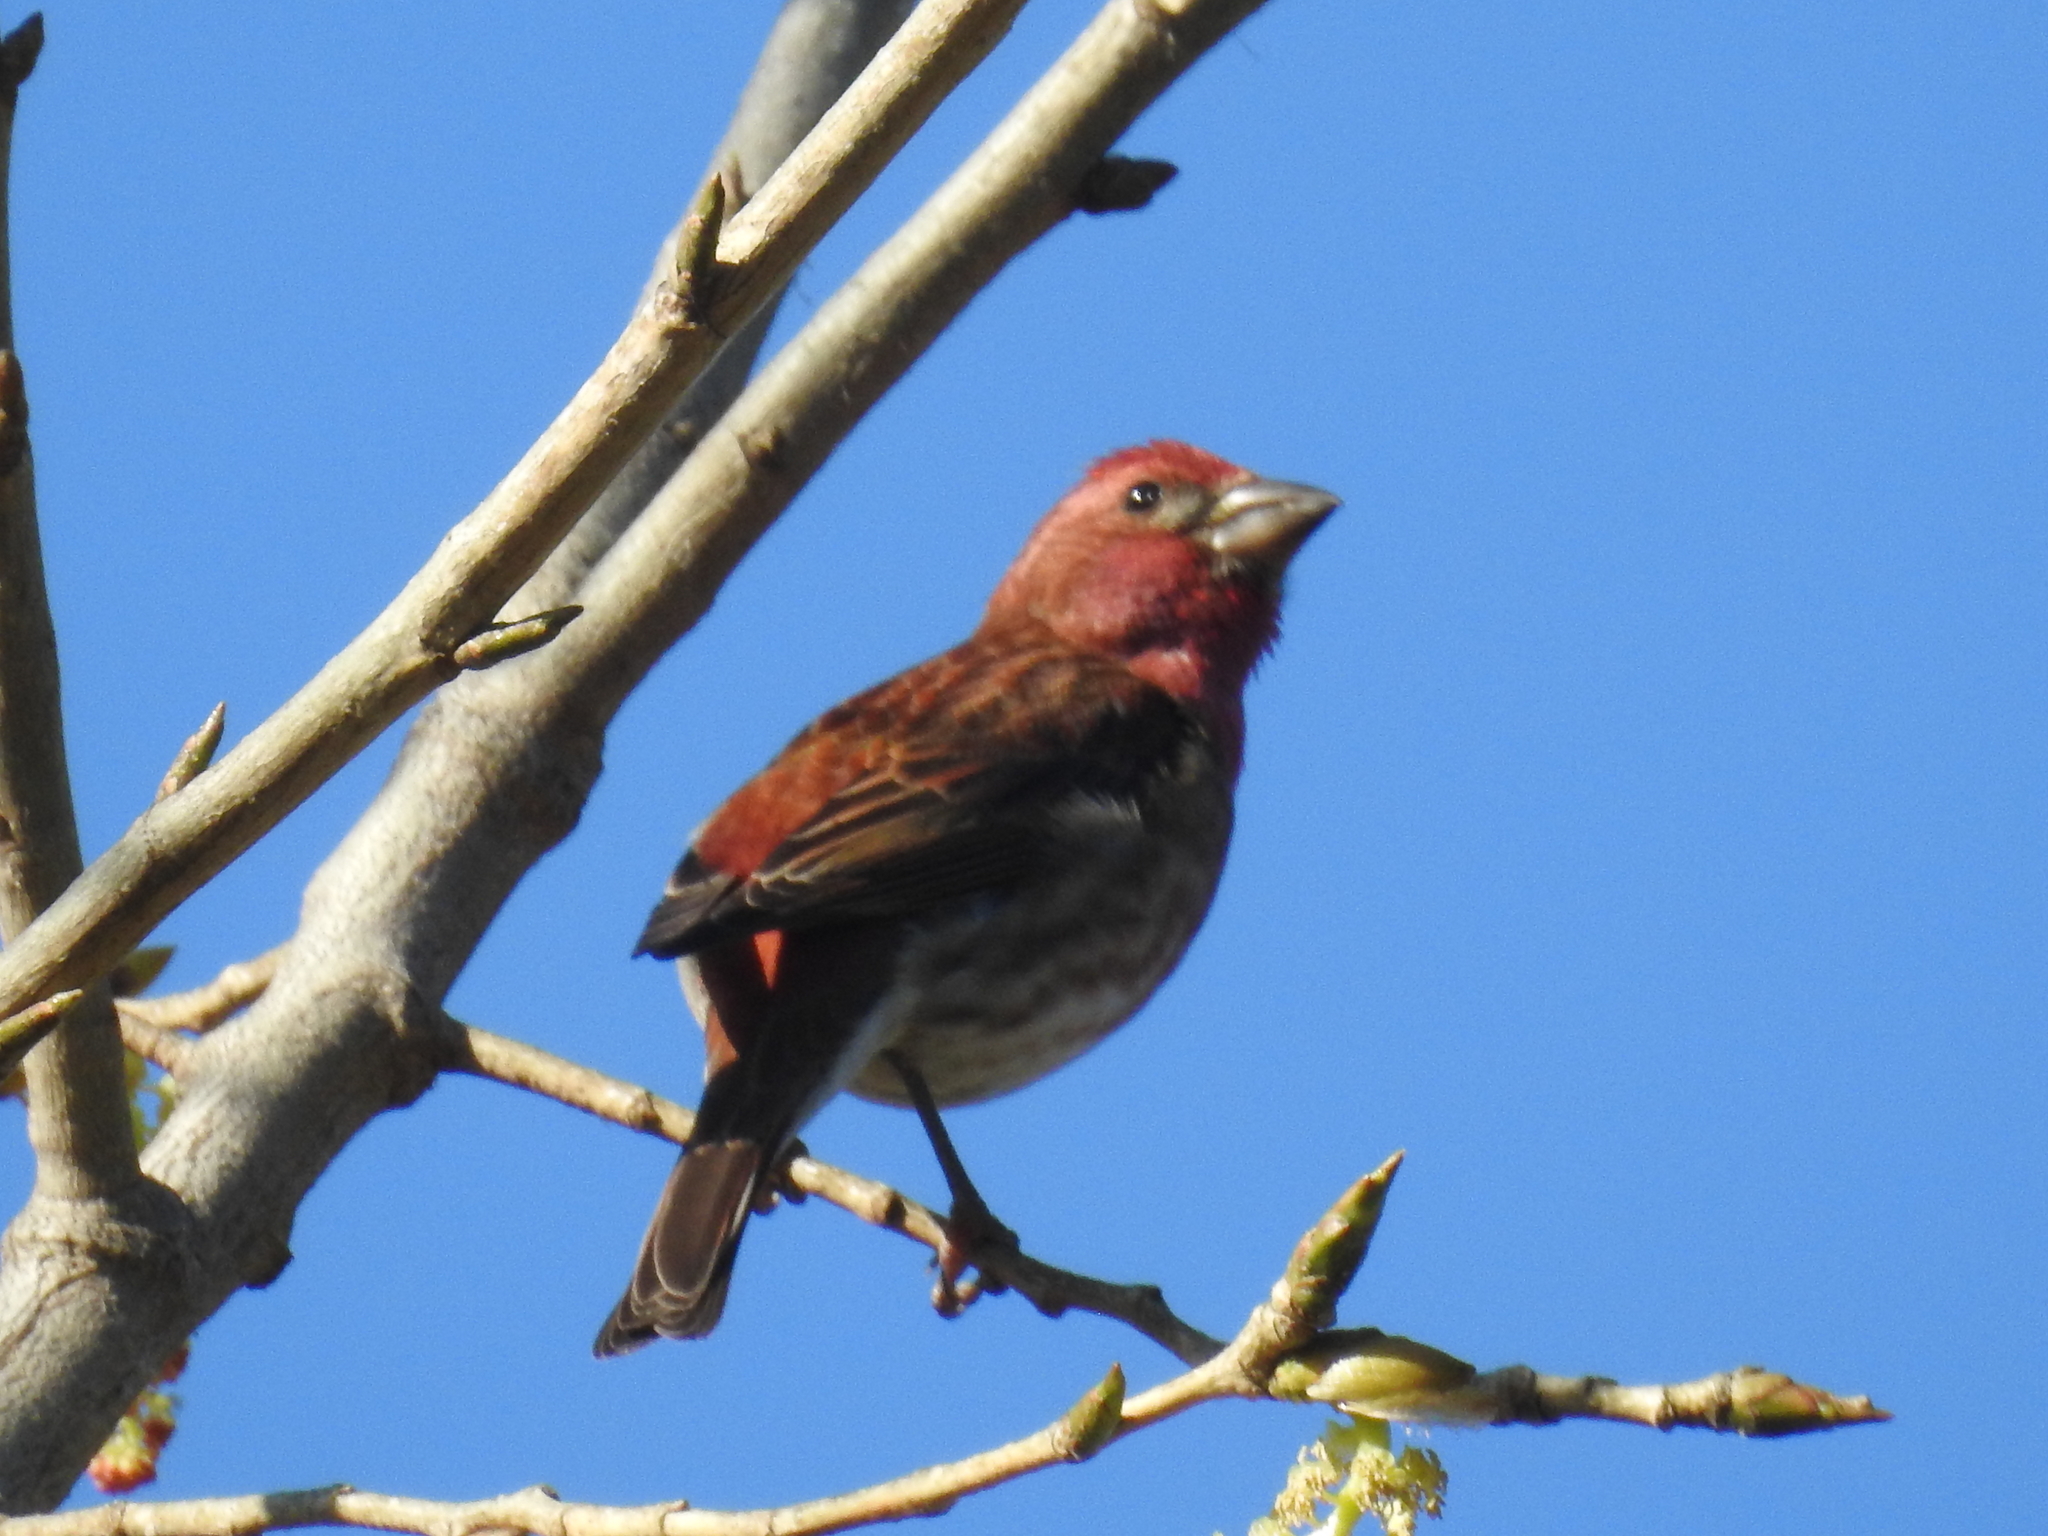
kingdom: Animalia
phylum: Chordata
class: Aves
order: Passeriformes
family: Fringillidae
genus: Haemorhous
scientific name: Haemorhous purpureus
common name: Purple finch
